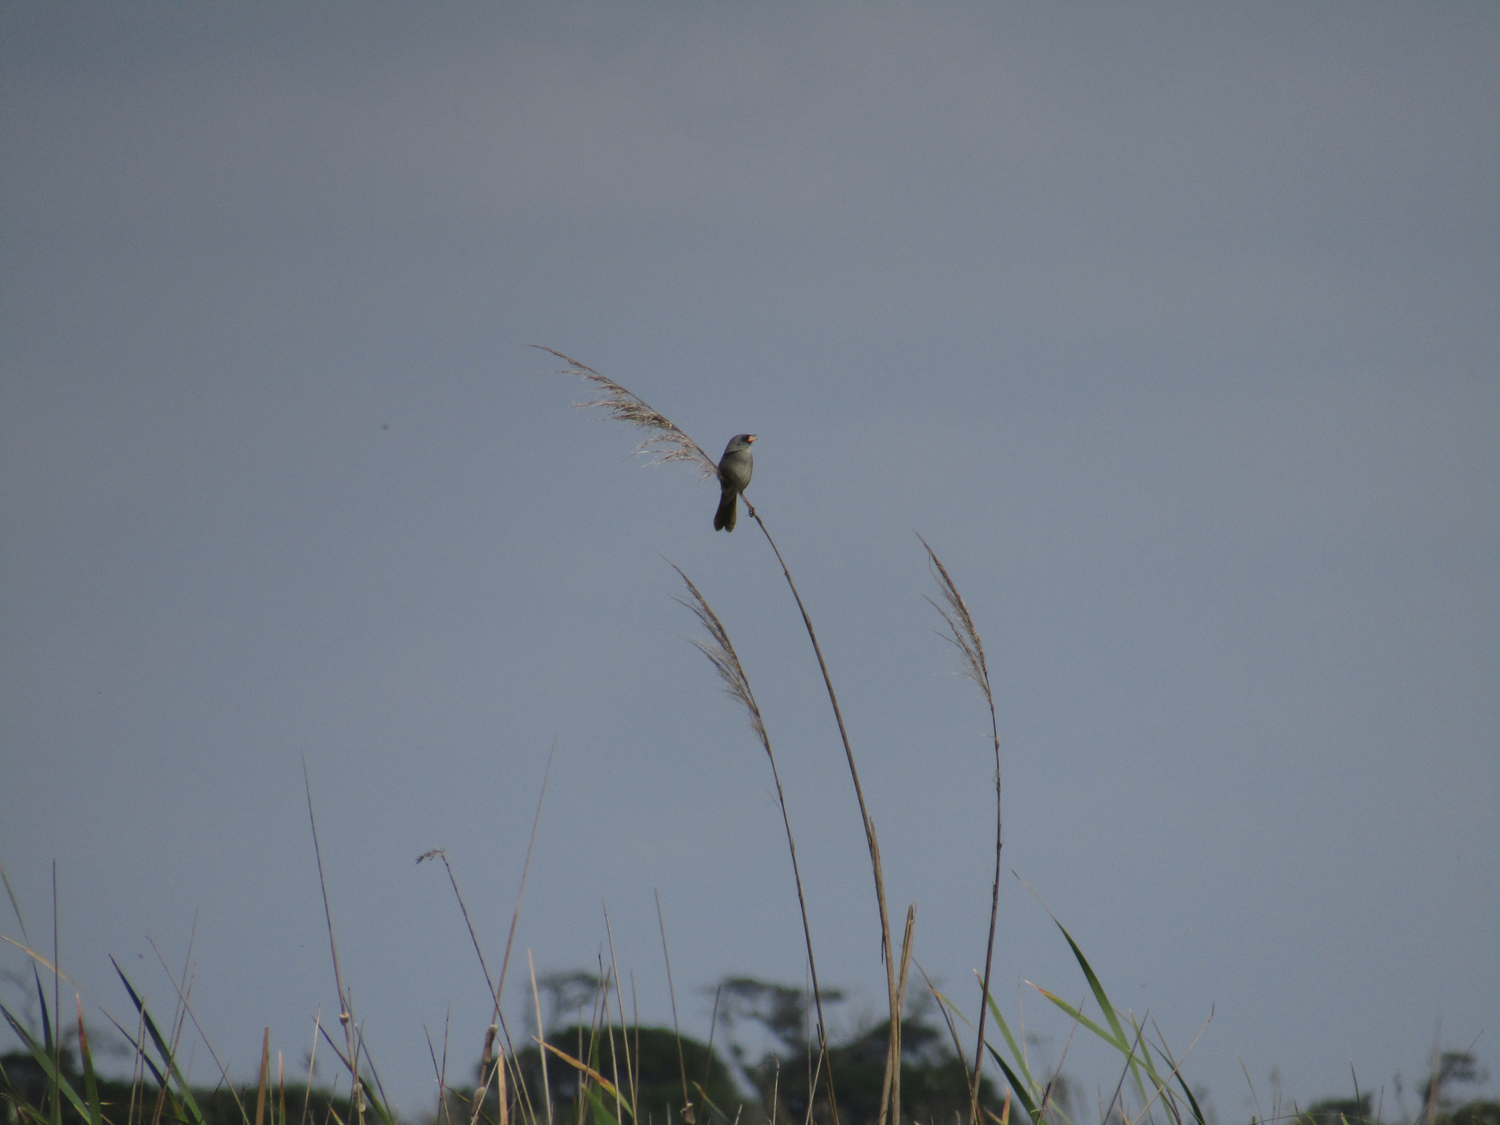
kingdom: Animalia
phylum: Chordata
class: Aves
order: Passeriformes
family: Thraupidae
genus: Embernagra
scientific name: Embernagra platensis
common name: Pampa finch
